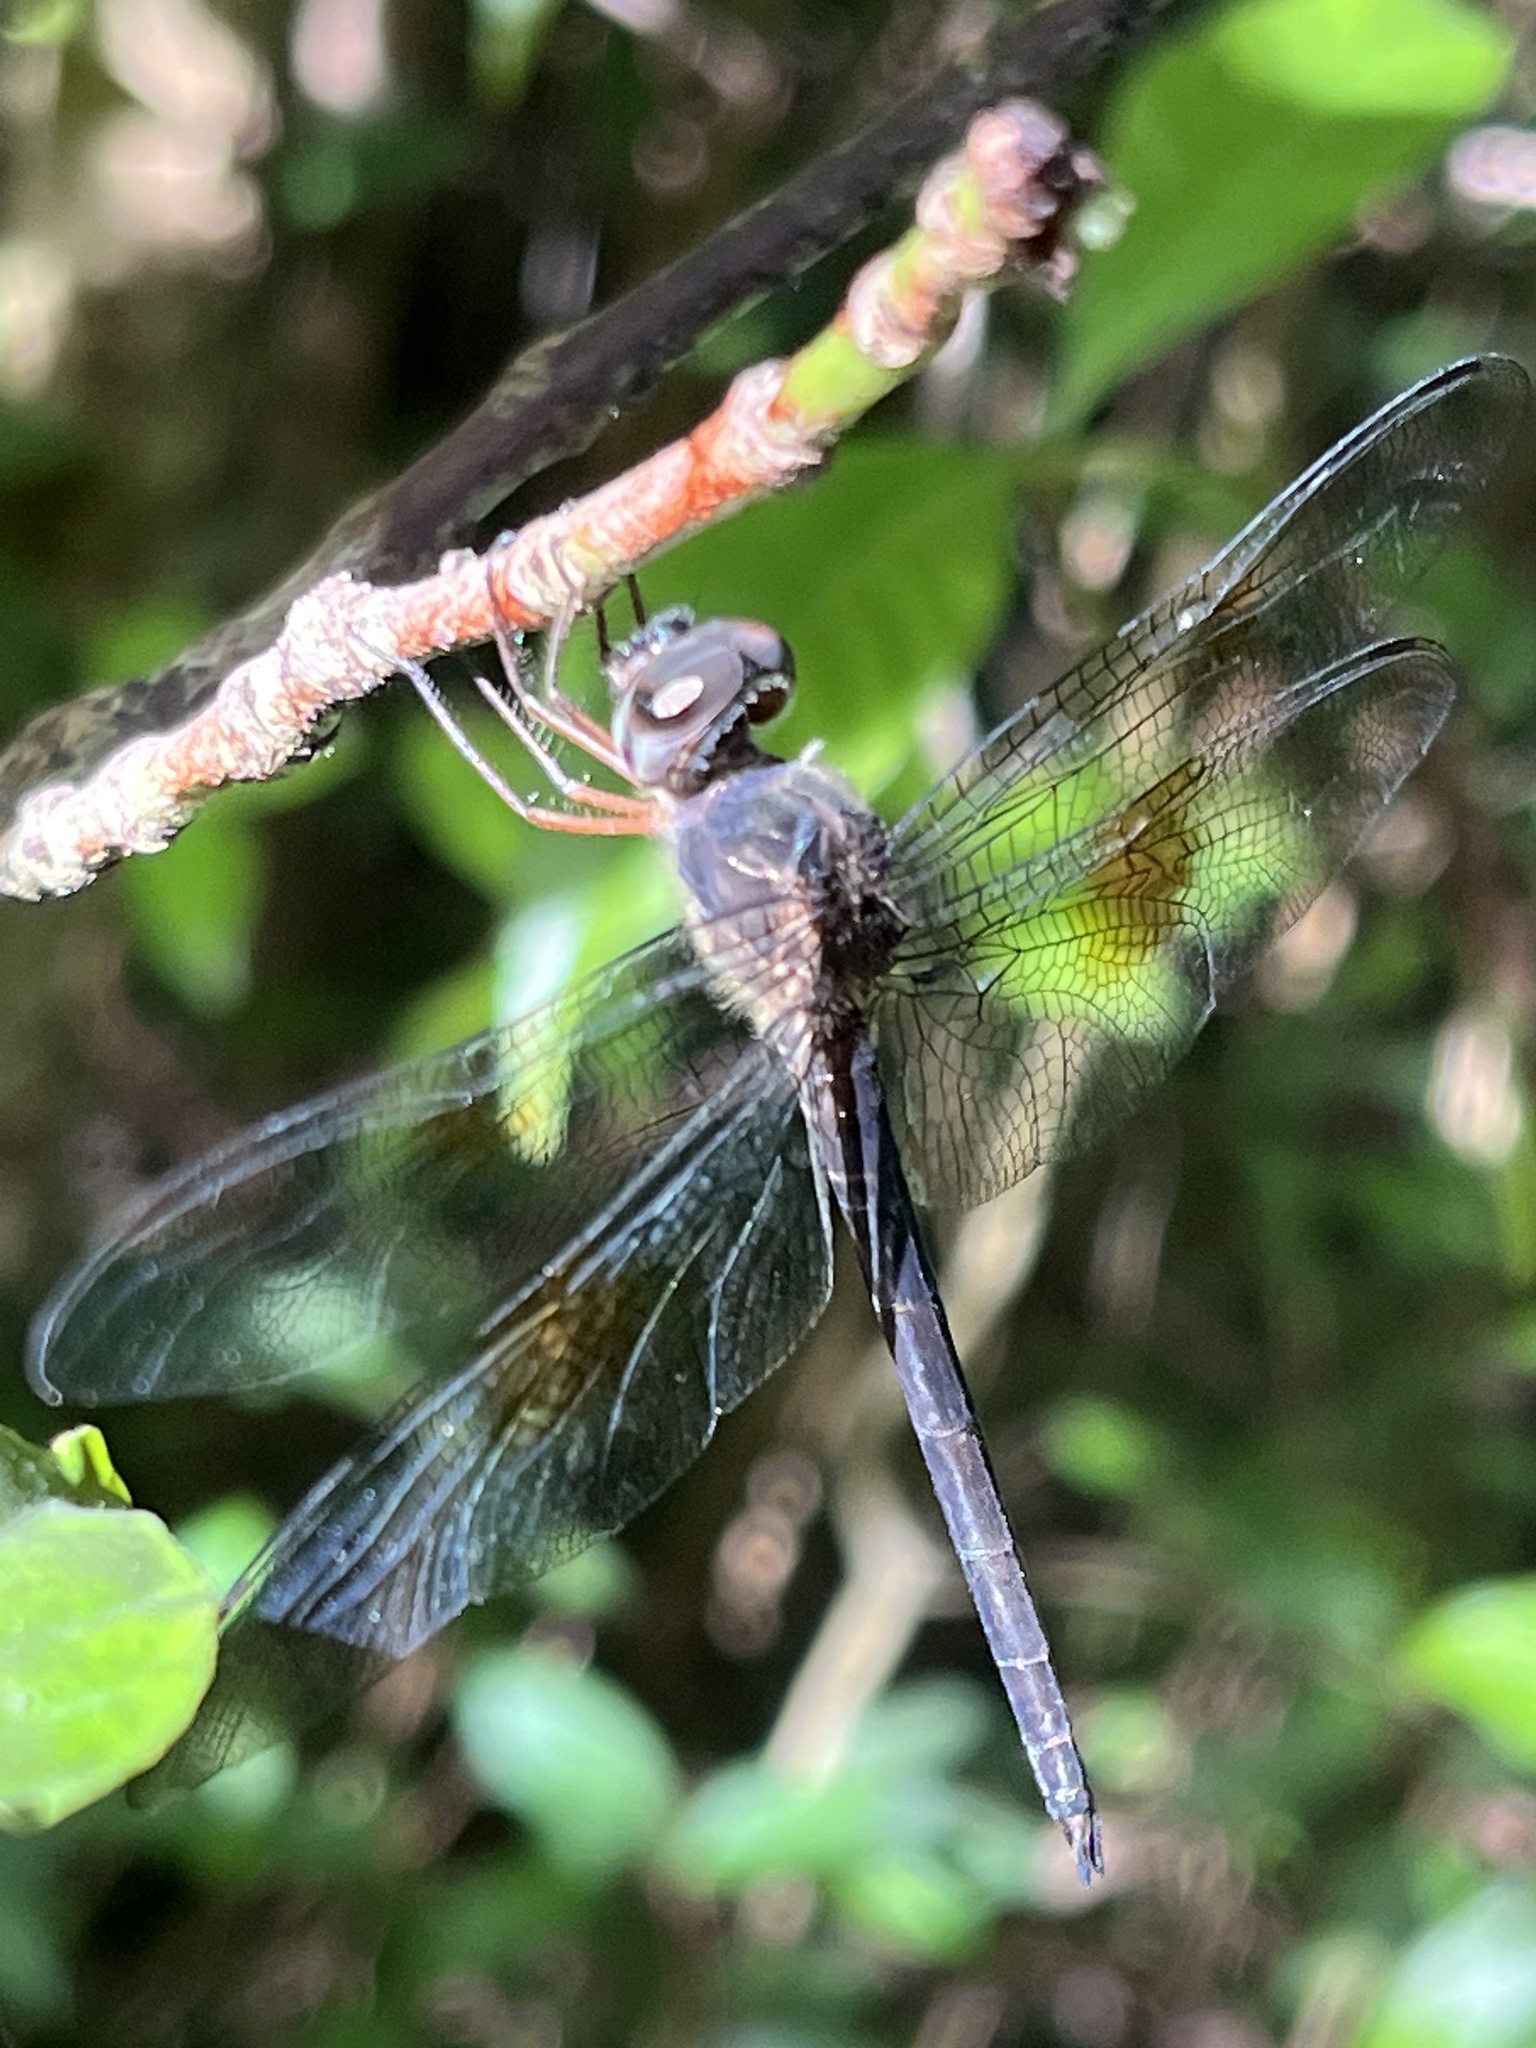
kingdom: Animalia
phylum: Arthropoda
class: Insecta
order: Odonata
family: Libellulidae
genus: Tholymis
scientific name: Tholymis citrina
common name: Evening skimmer
